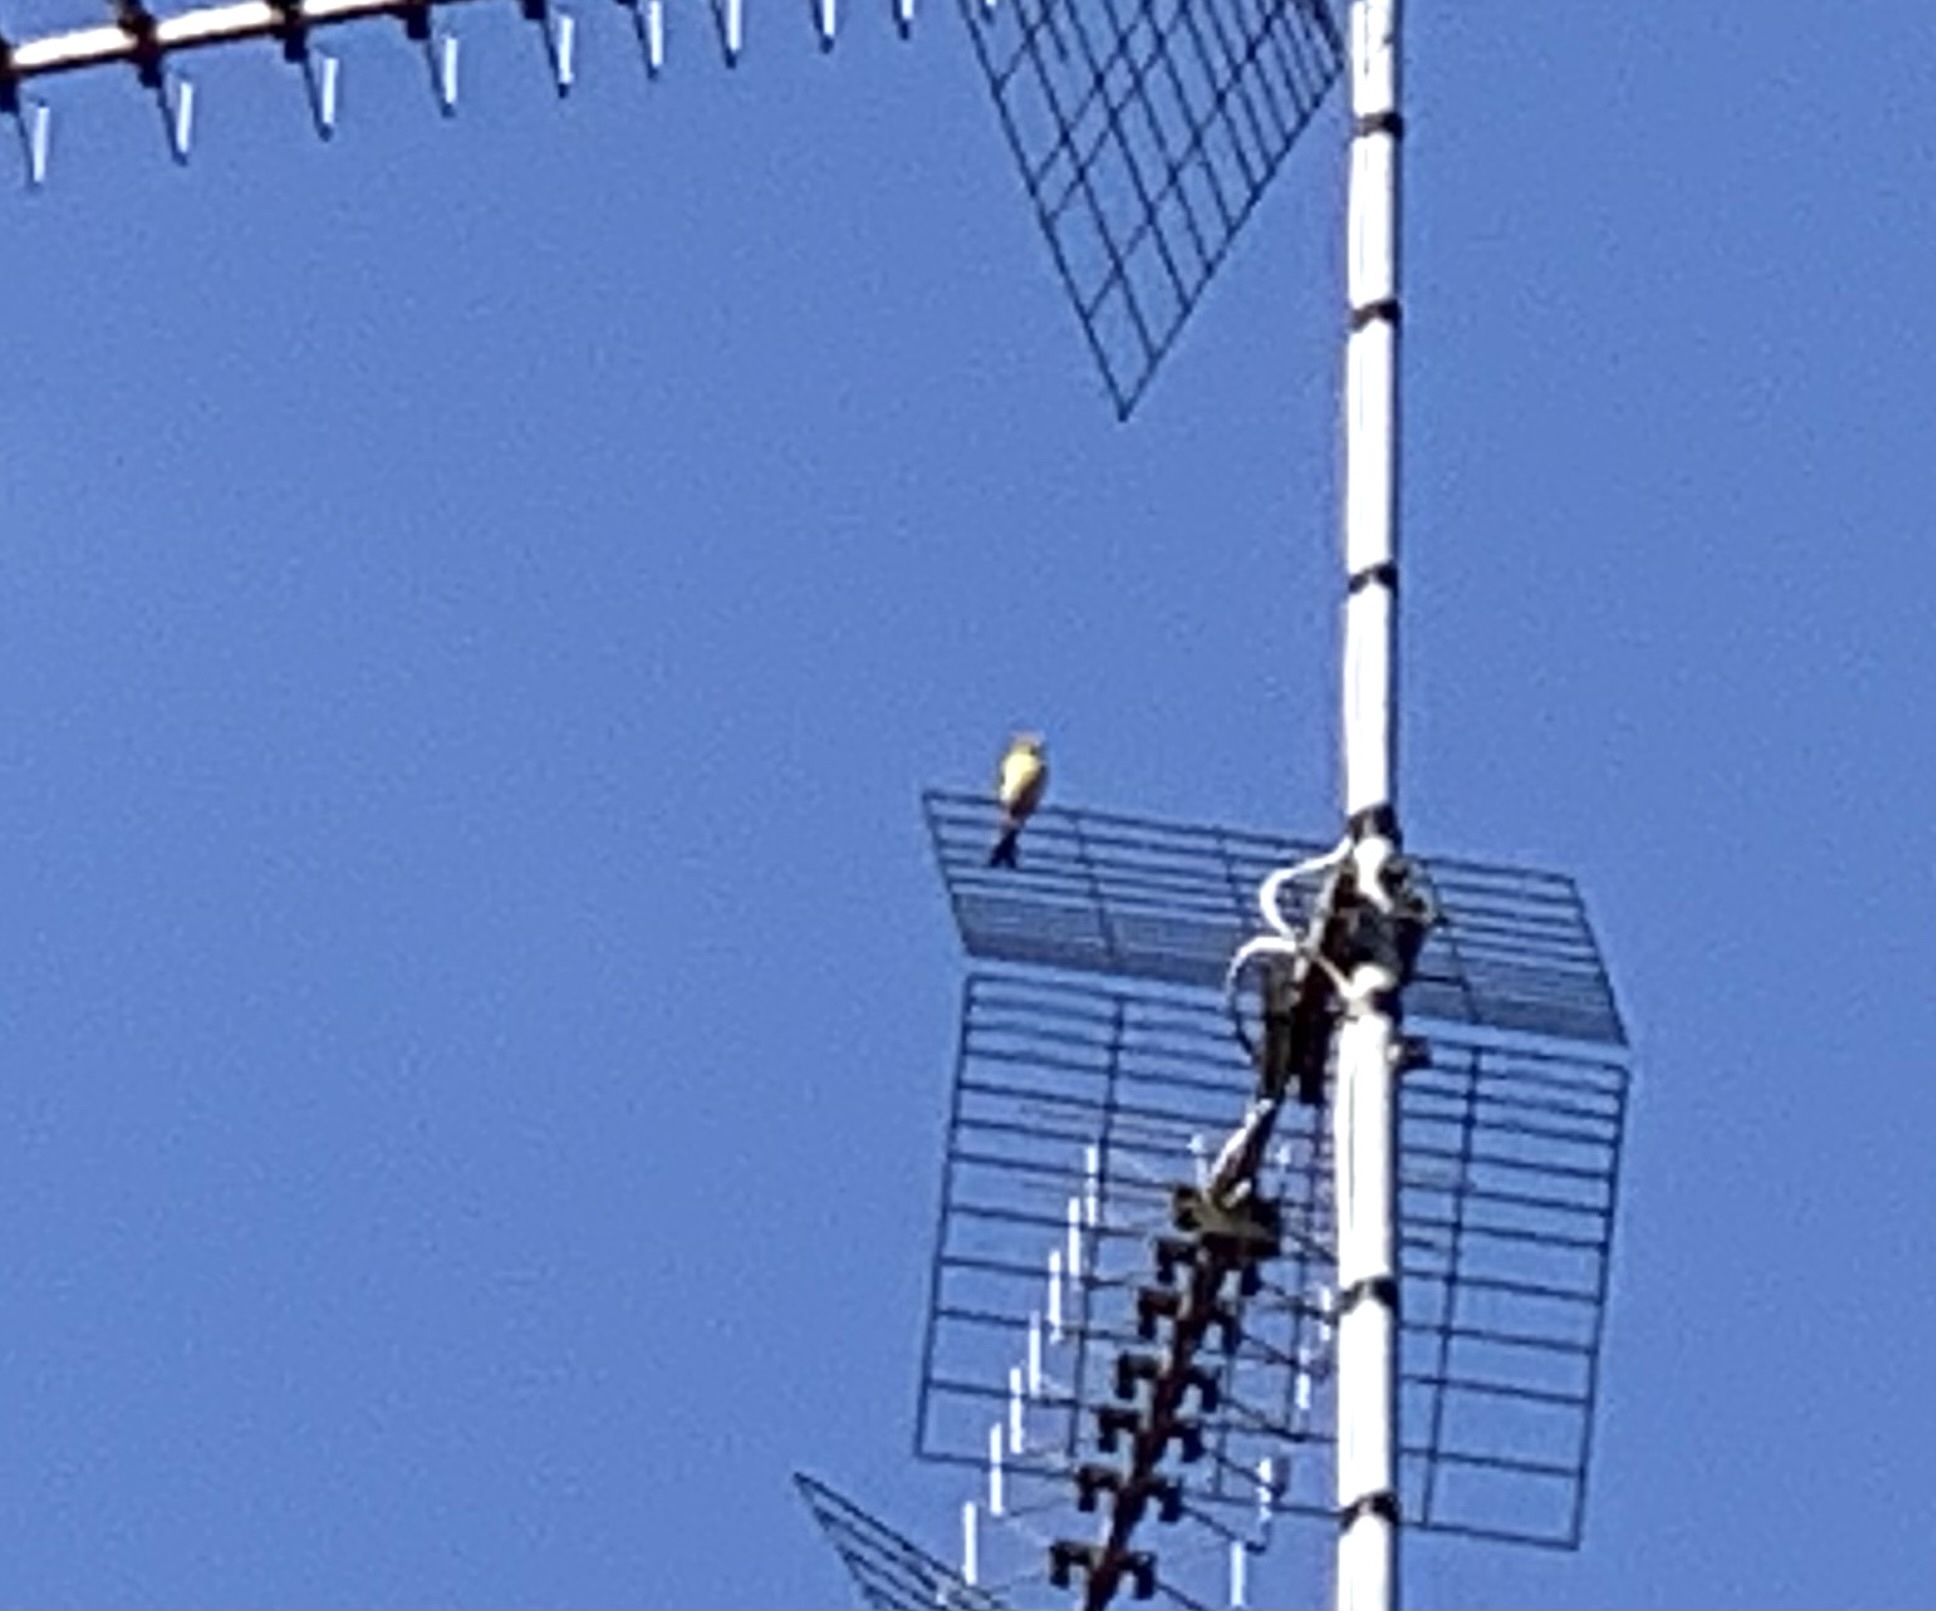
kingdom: Animalia
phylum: Chordata
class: Aves
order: Passeriformes
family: Fringillidae
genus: Serinus
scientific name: Serinus serinus
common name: European serin
